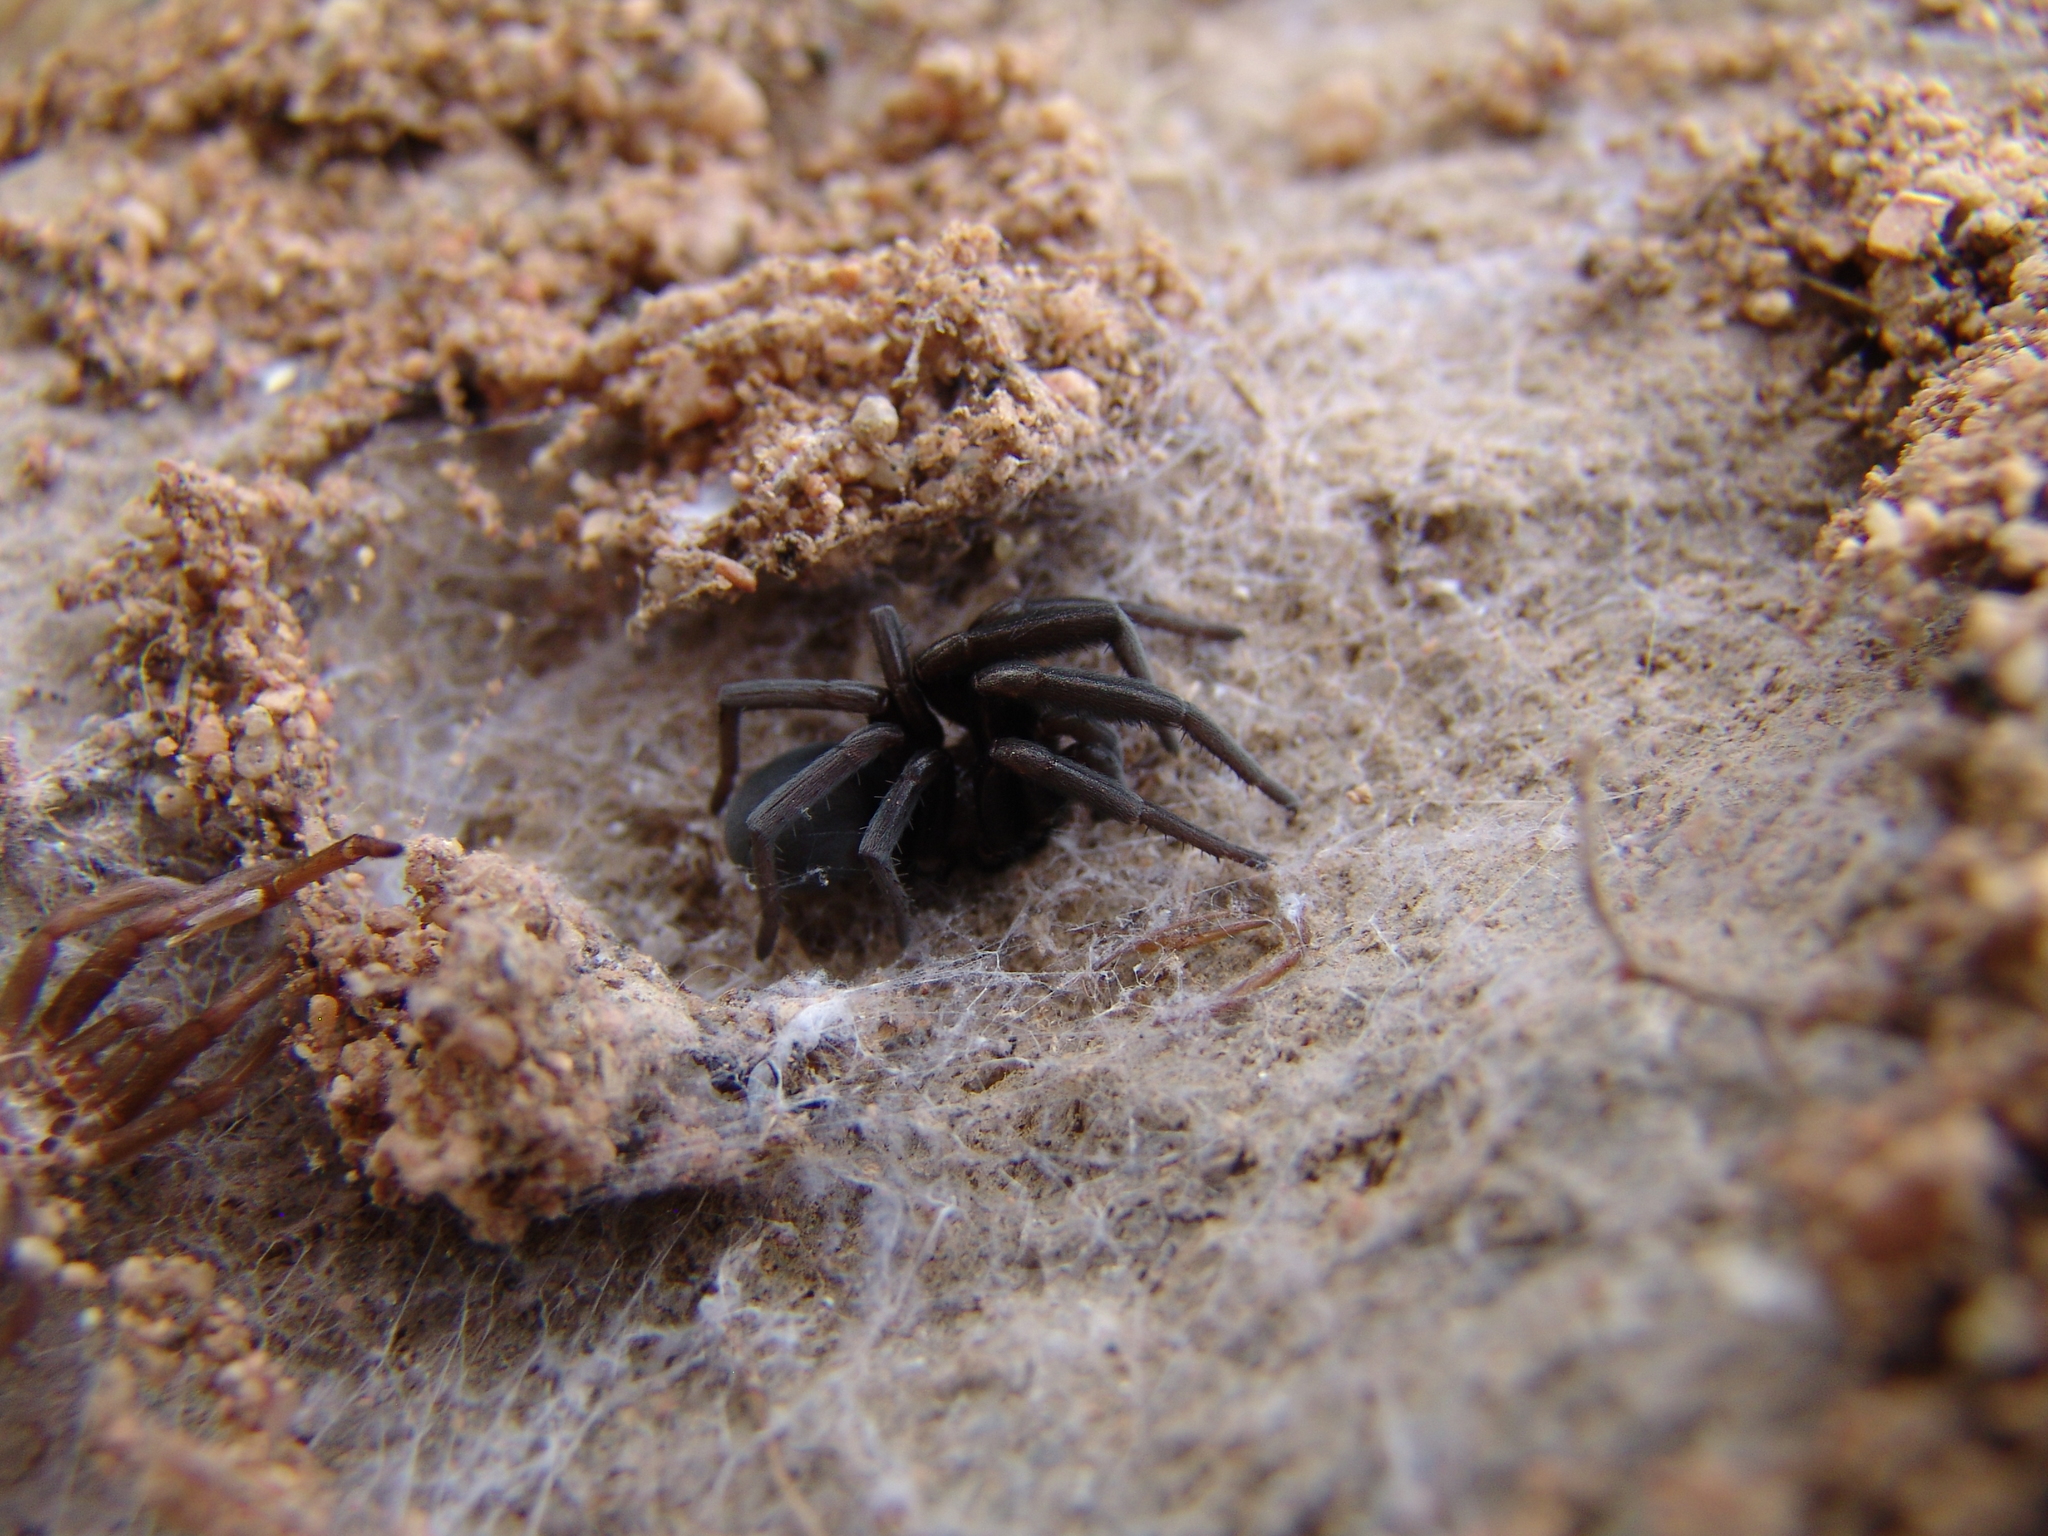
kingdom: Animalia
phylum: Arthropoda
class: Arachnida
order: Araneae
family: Filistatidae
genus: Kukulcania
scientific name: Kukulcania
